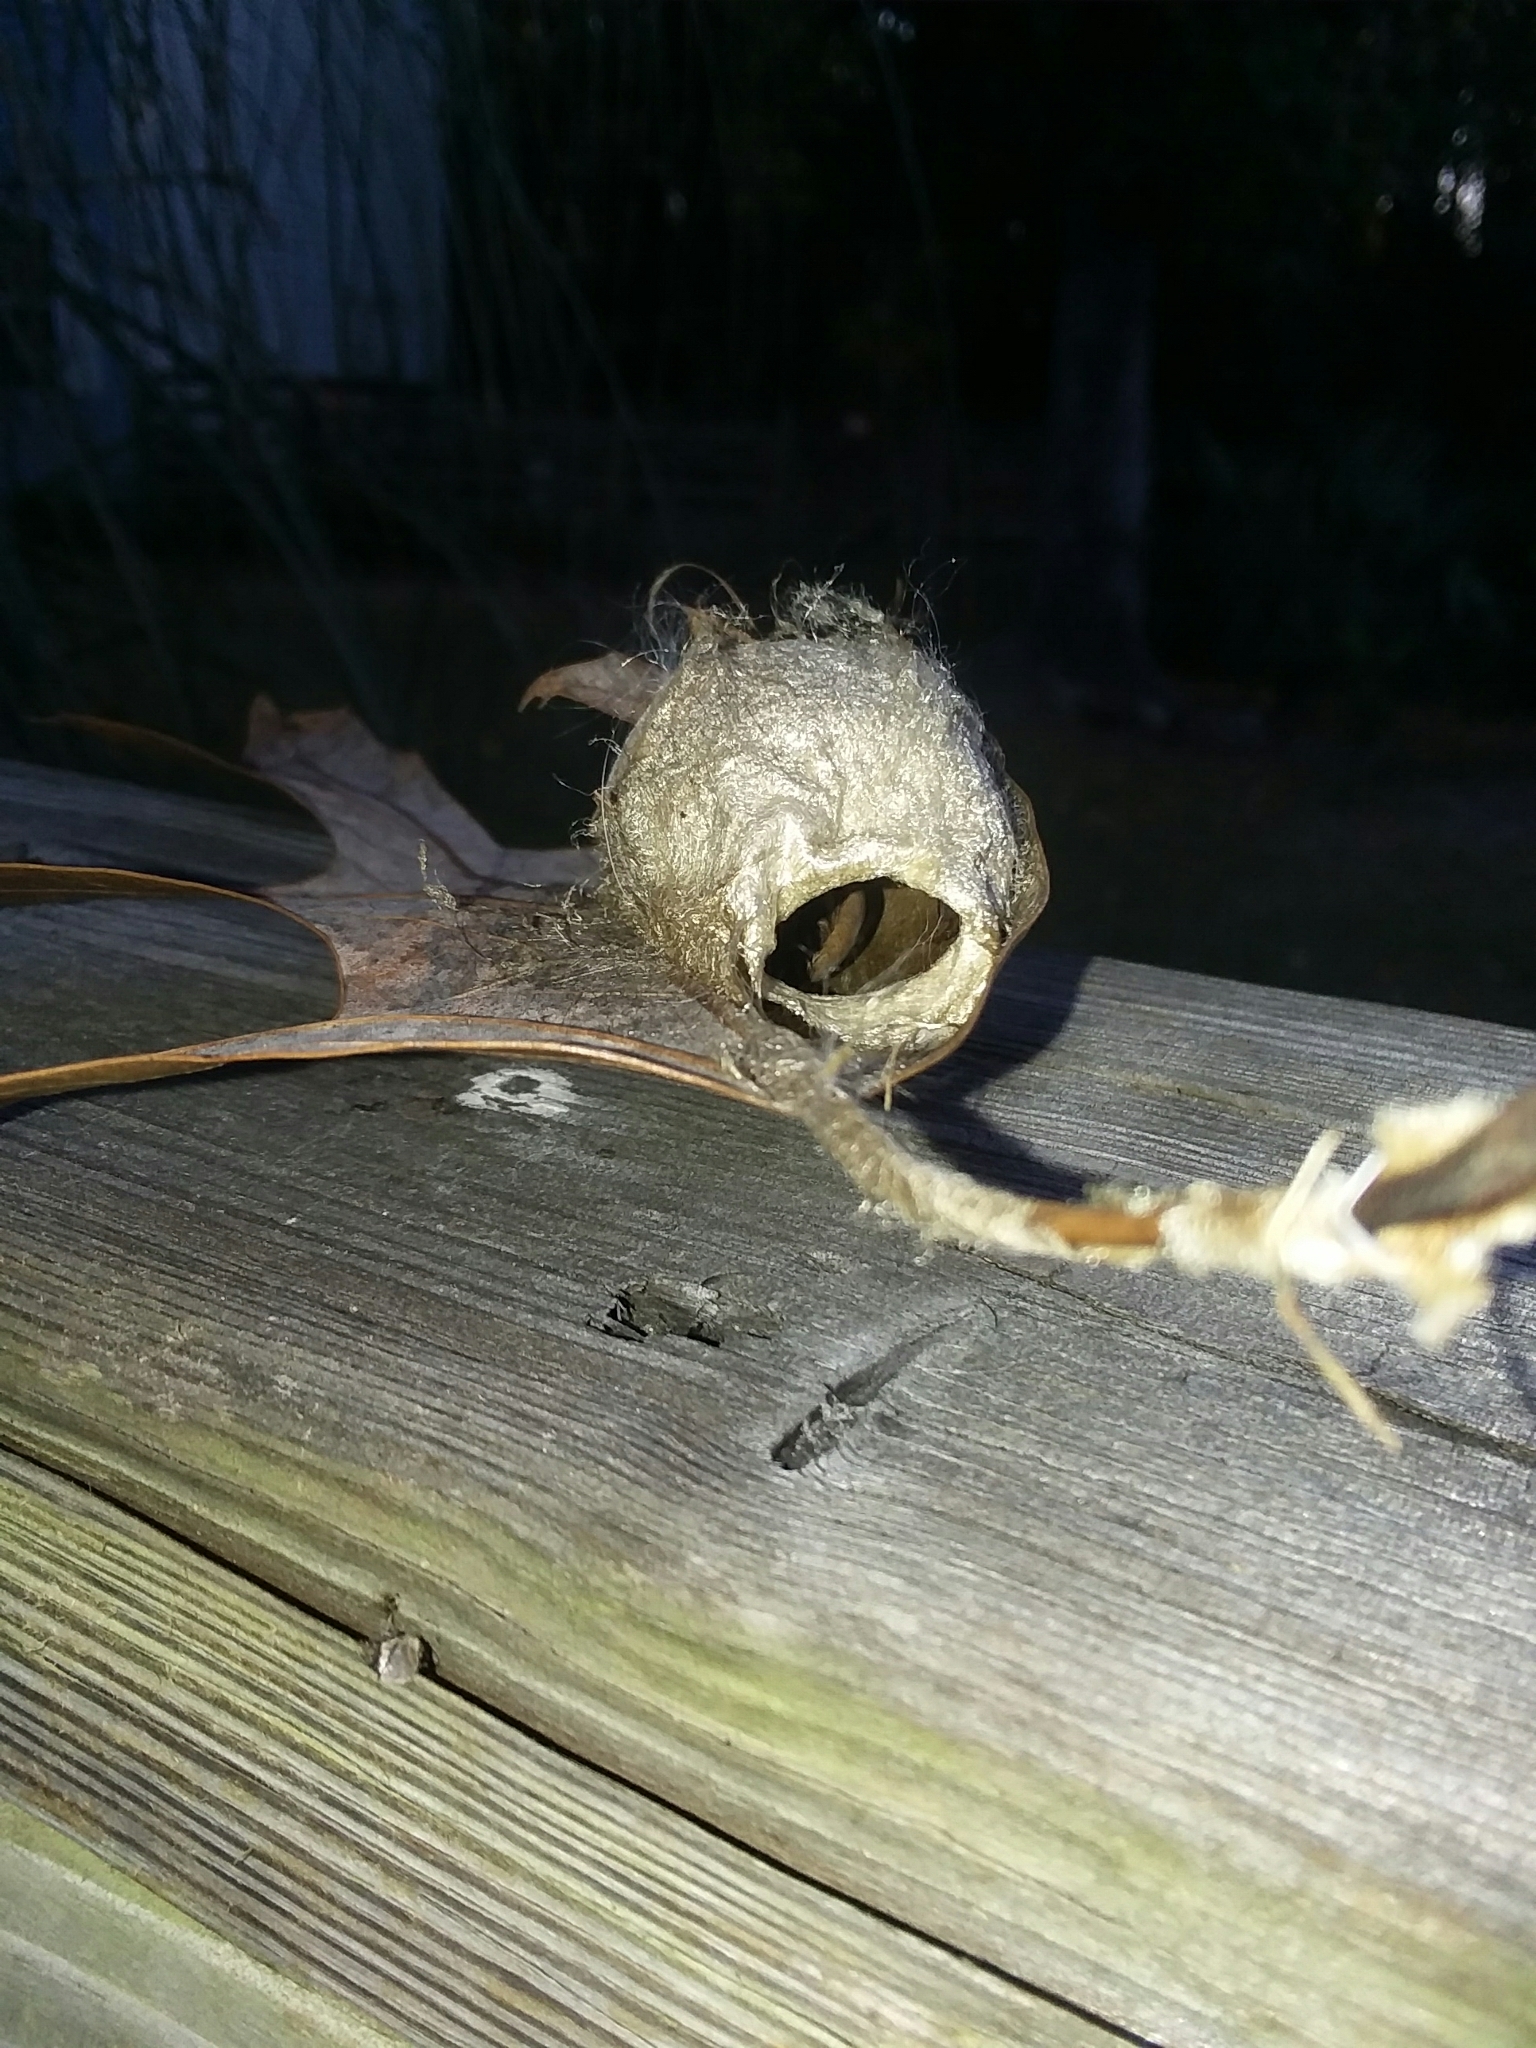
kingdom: Animalia
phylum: Arthropoda
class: Insecta
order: Lepidoptera
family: Saturniidae
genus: Antheraea
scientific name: Antheraea polyphemus
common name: Polyphemus moth
